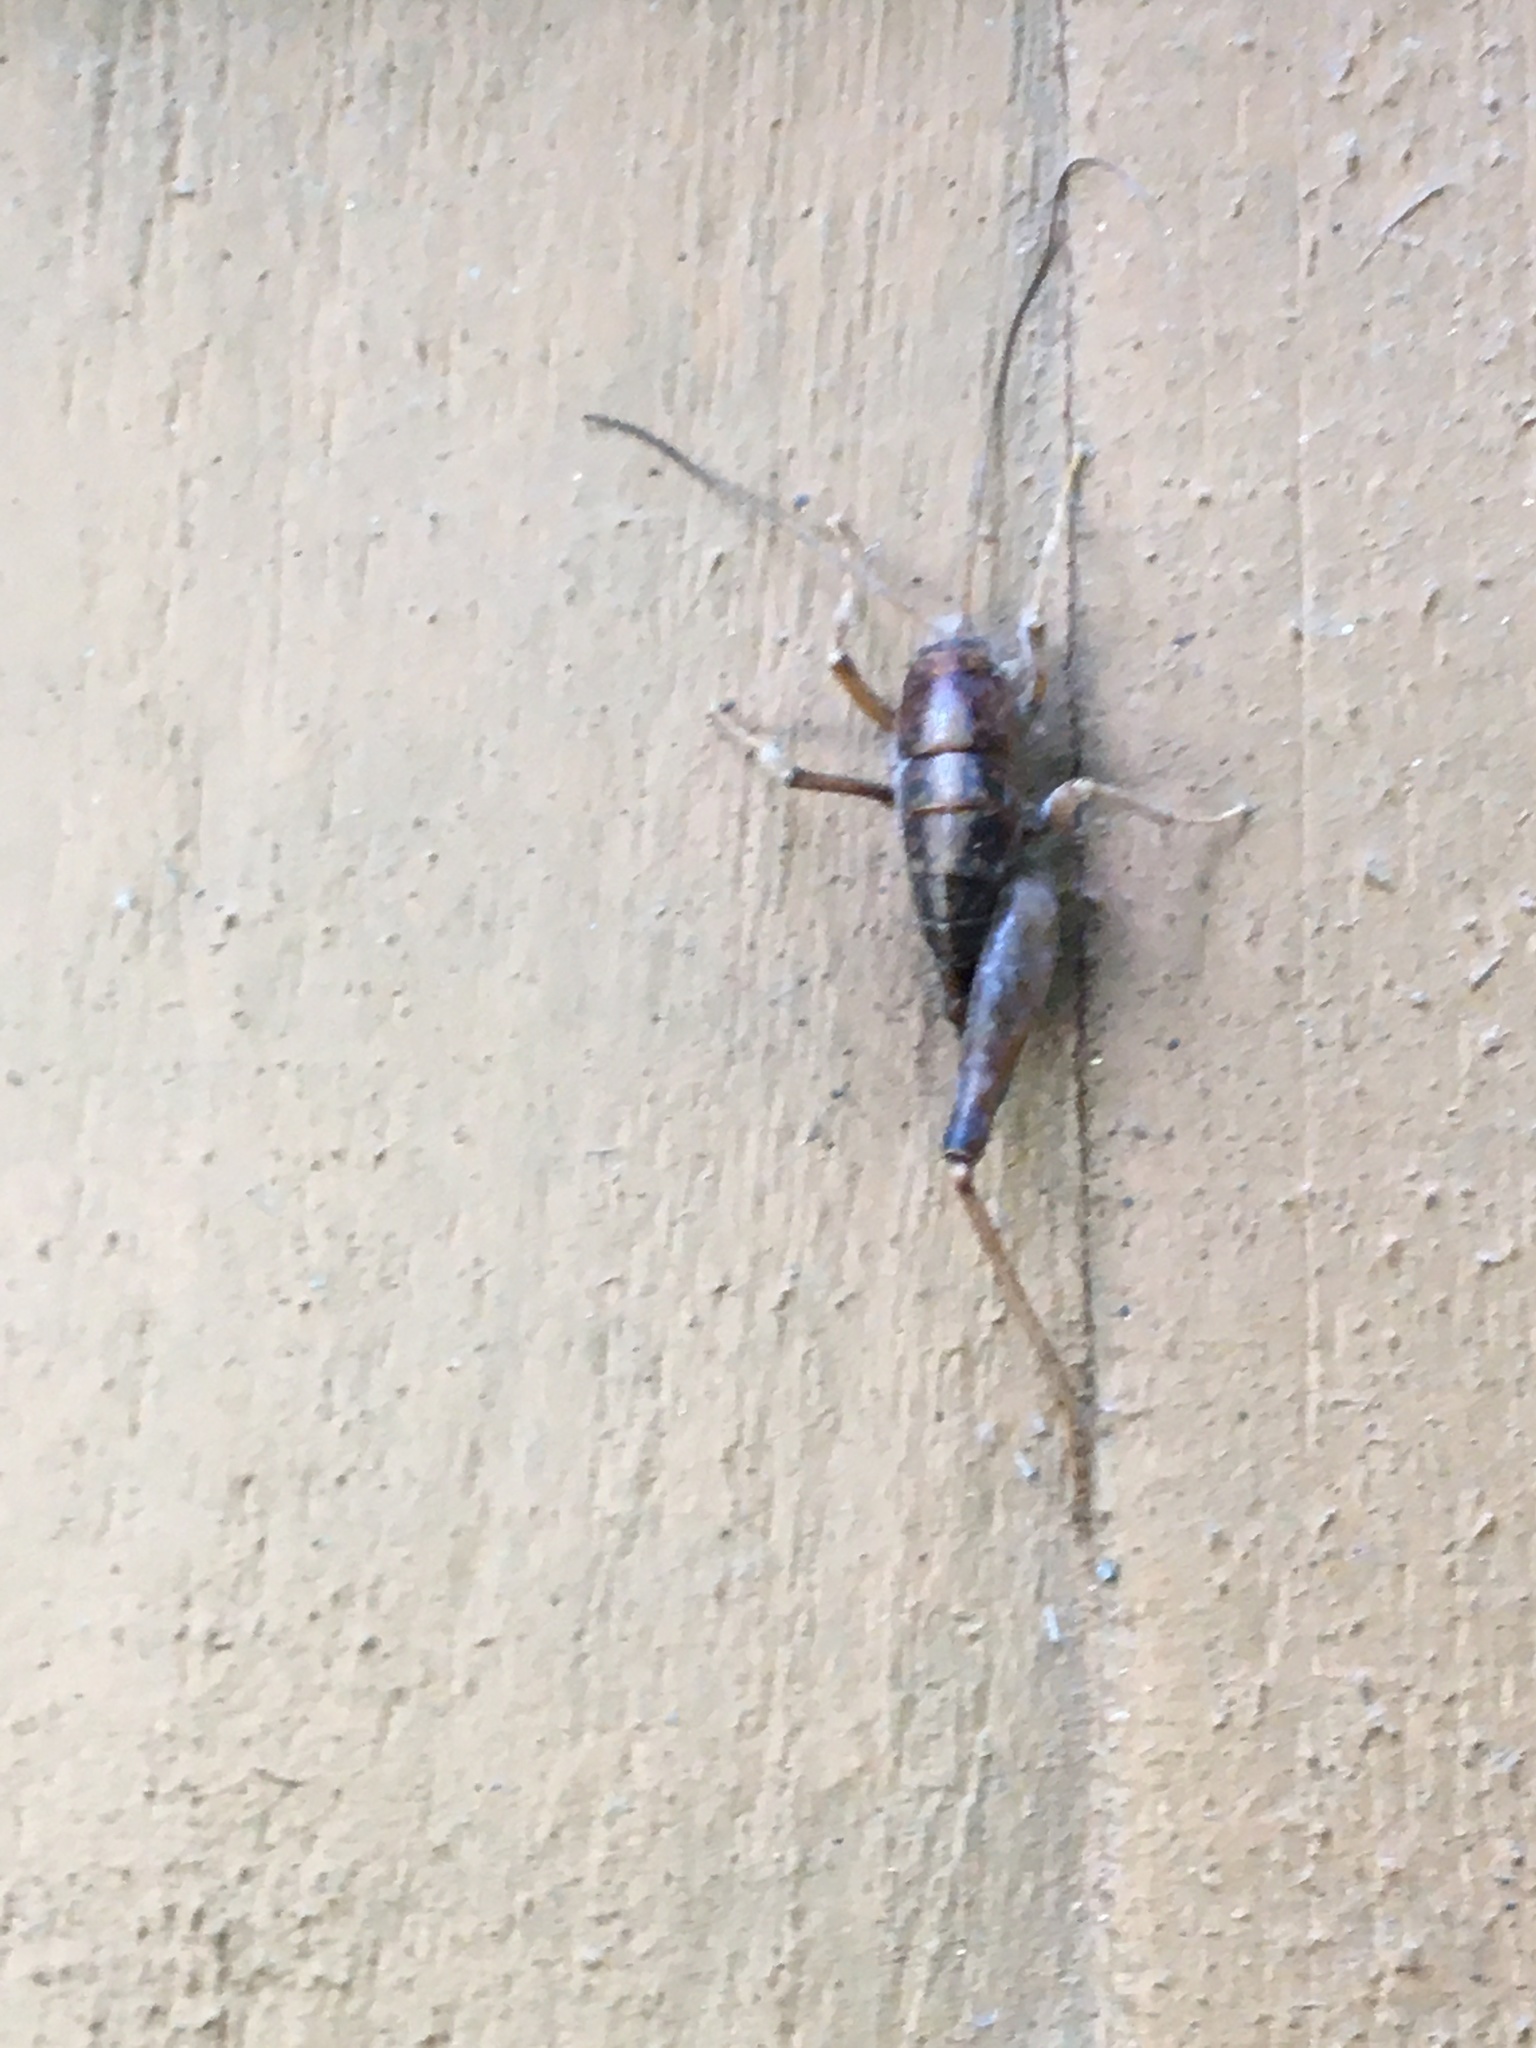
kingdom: Animalia
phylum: Arthropoda
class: Insecta
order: Orthoptera
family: Rhaphidophoridae
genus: Ceuthophilus
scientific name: Ceuthophilus
